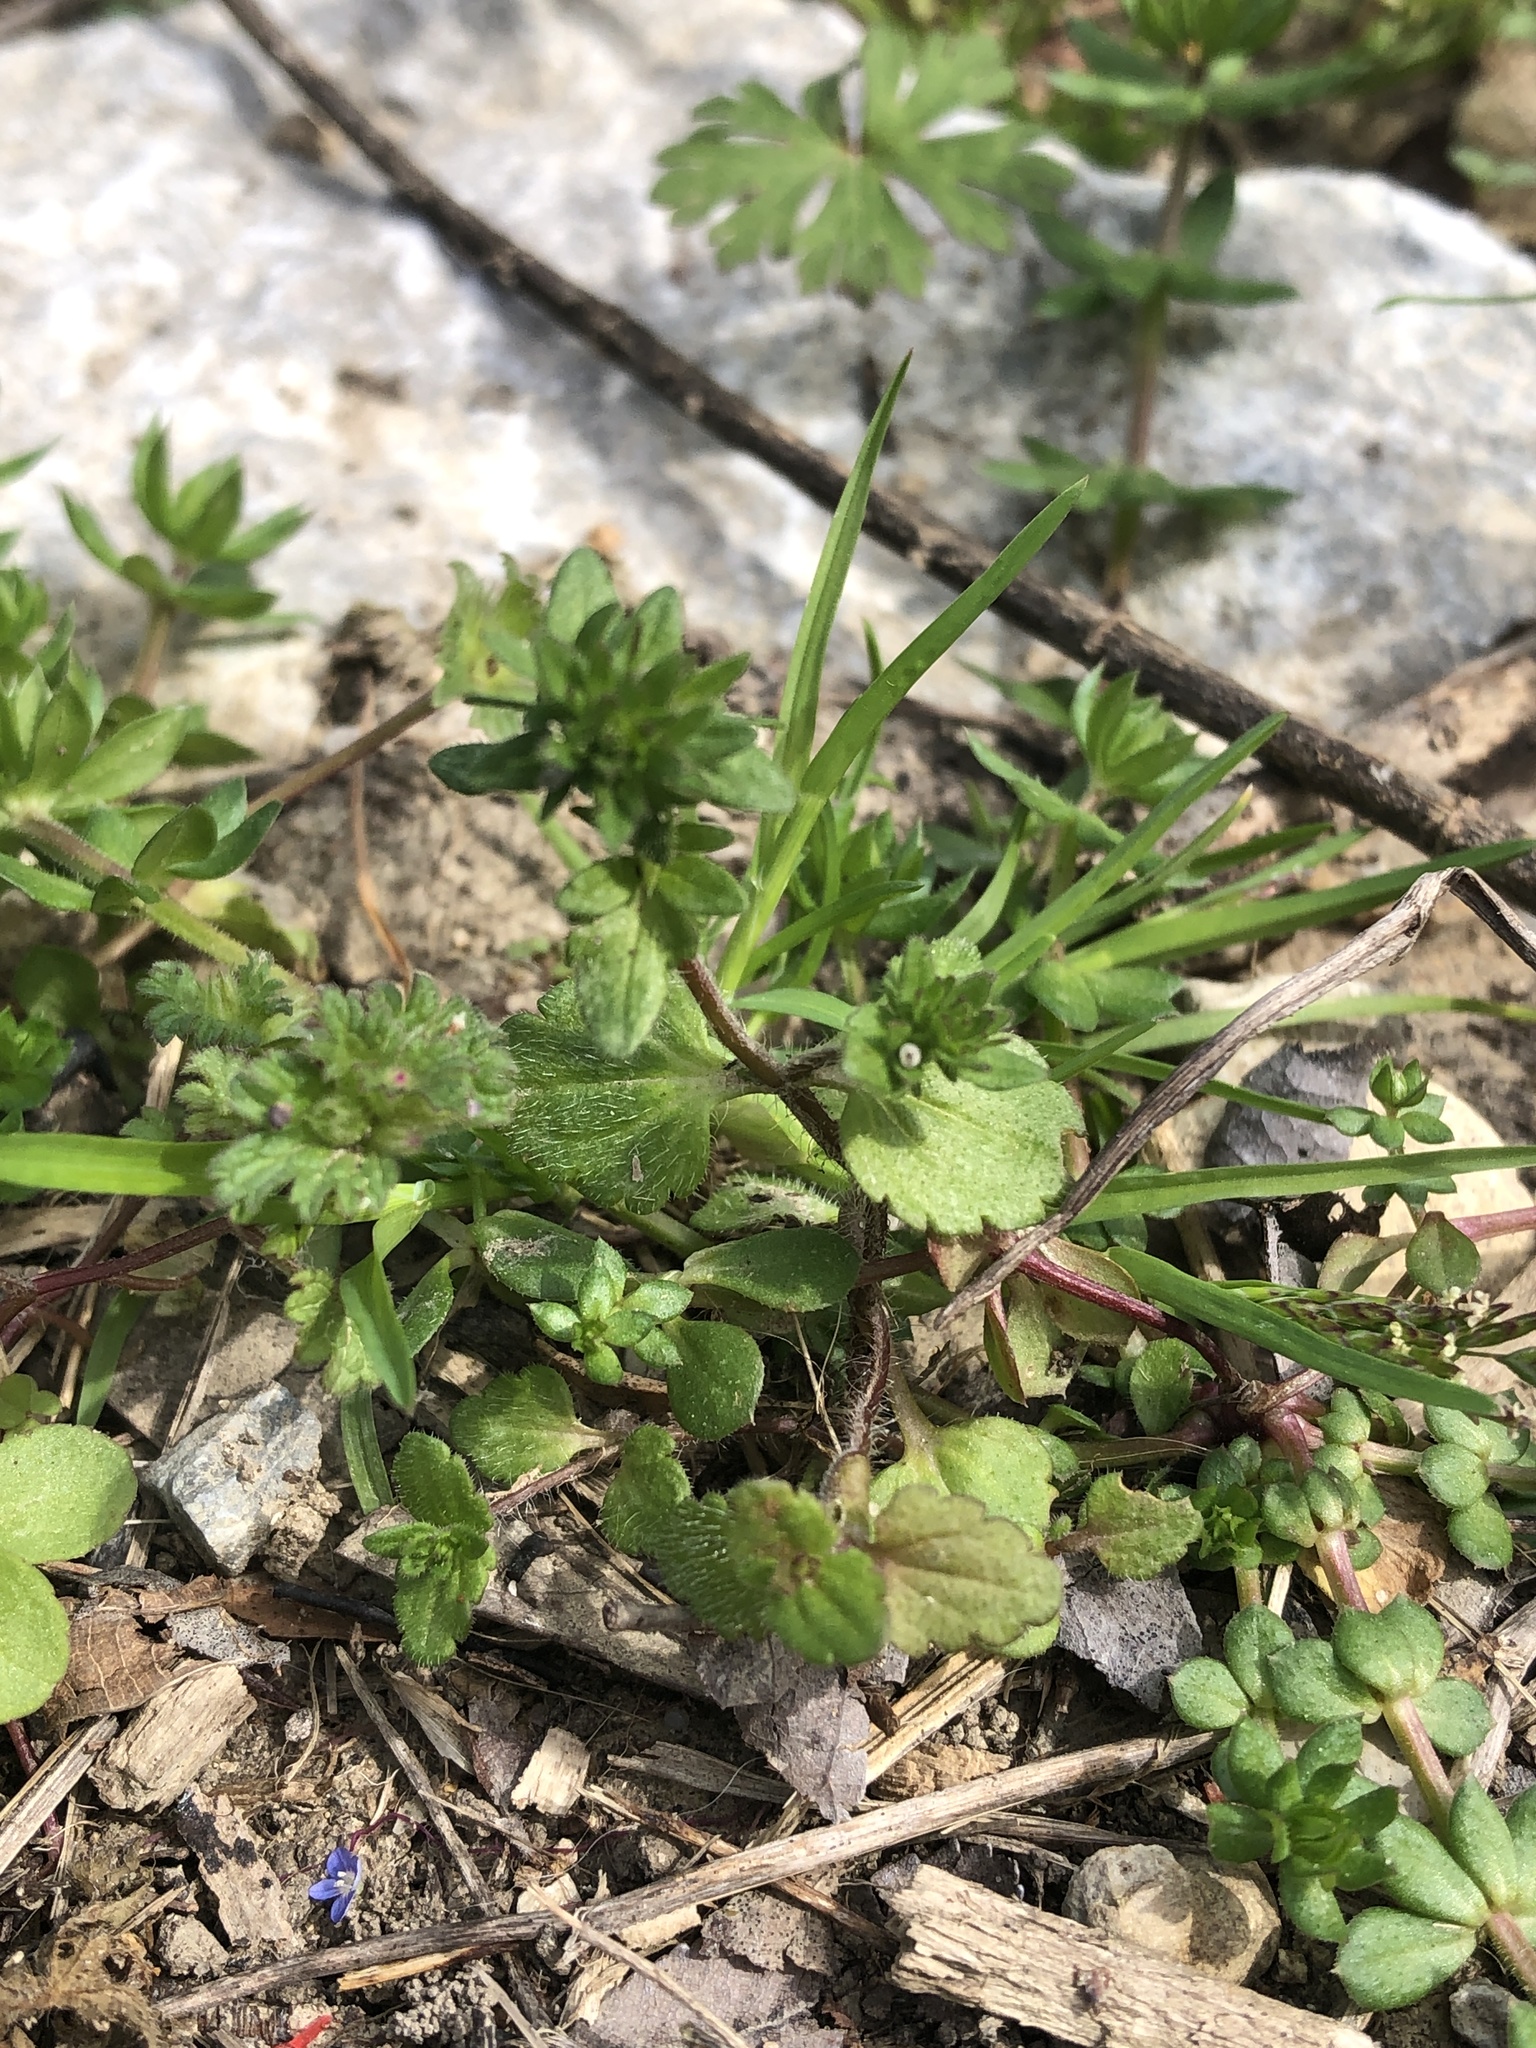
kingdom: Plantae
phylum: Tracheophyta
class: Magnoliopsida
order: Lamiales
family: Plantaginaceae
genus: Veronica
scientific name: Veronica arvensis
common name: Corn speedwell
